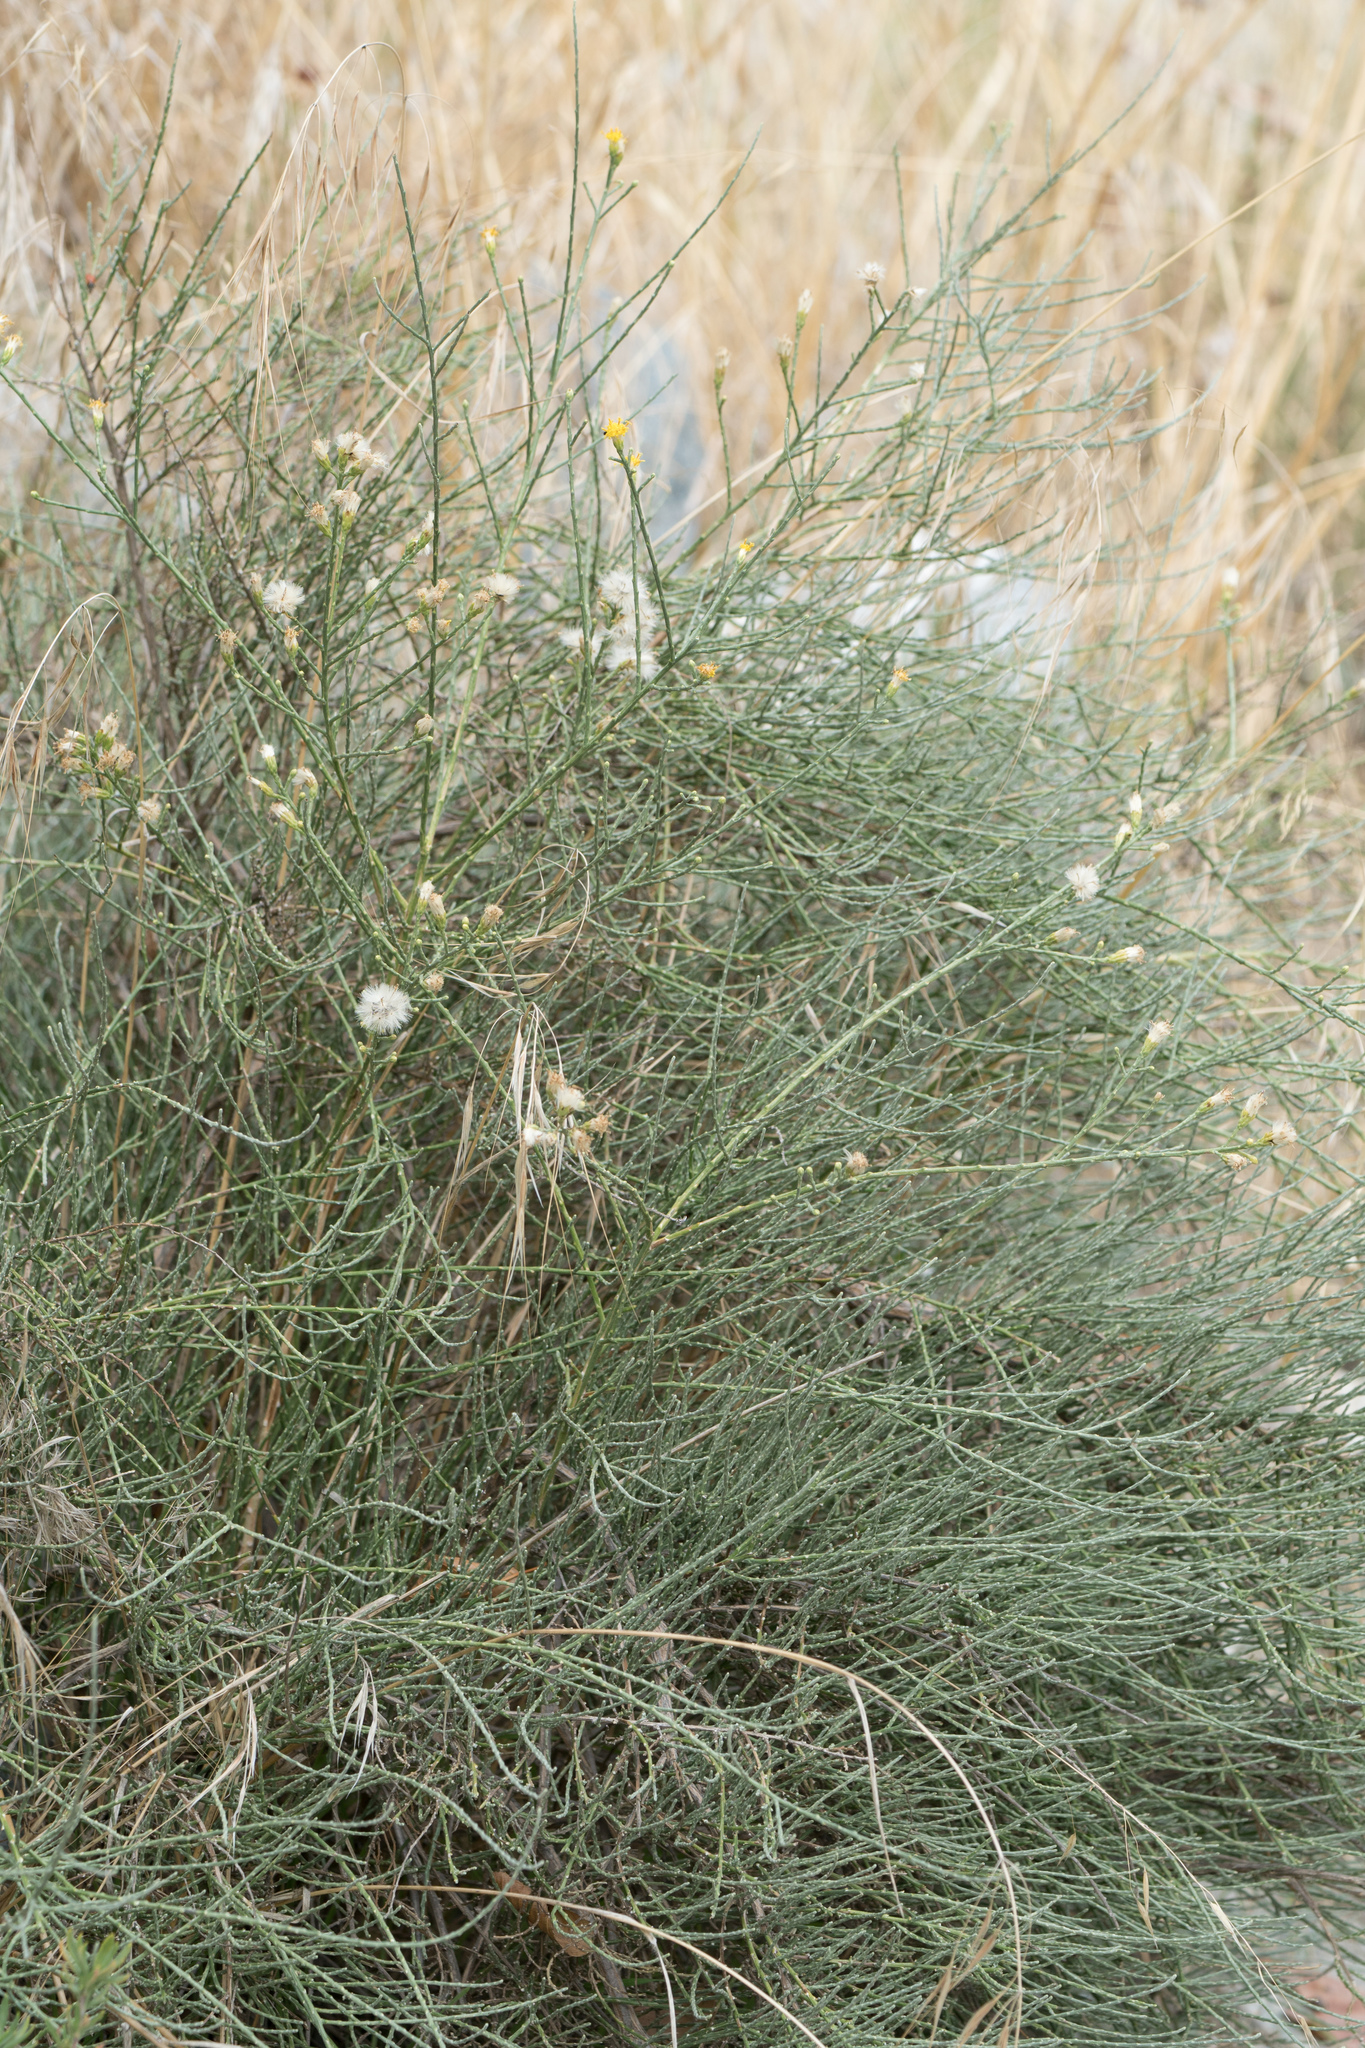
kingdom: Plantae
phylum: Tracheophyta
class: Magnoliopsida
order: Asterales
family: Asteraceae
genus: Lepidospartum
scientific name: Lepidospartum squamatum
